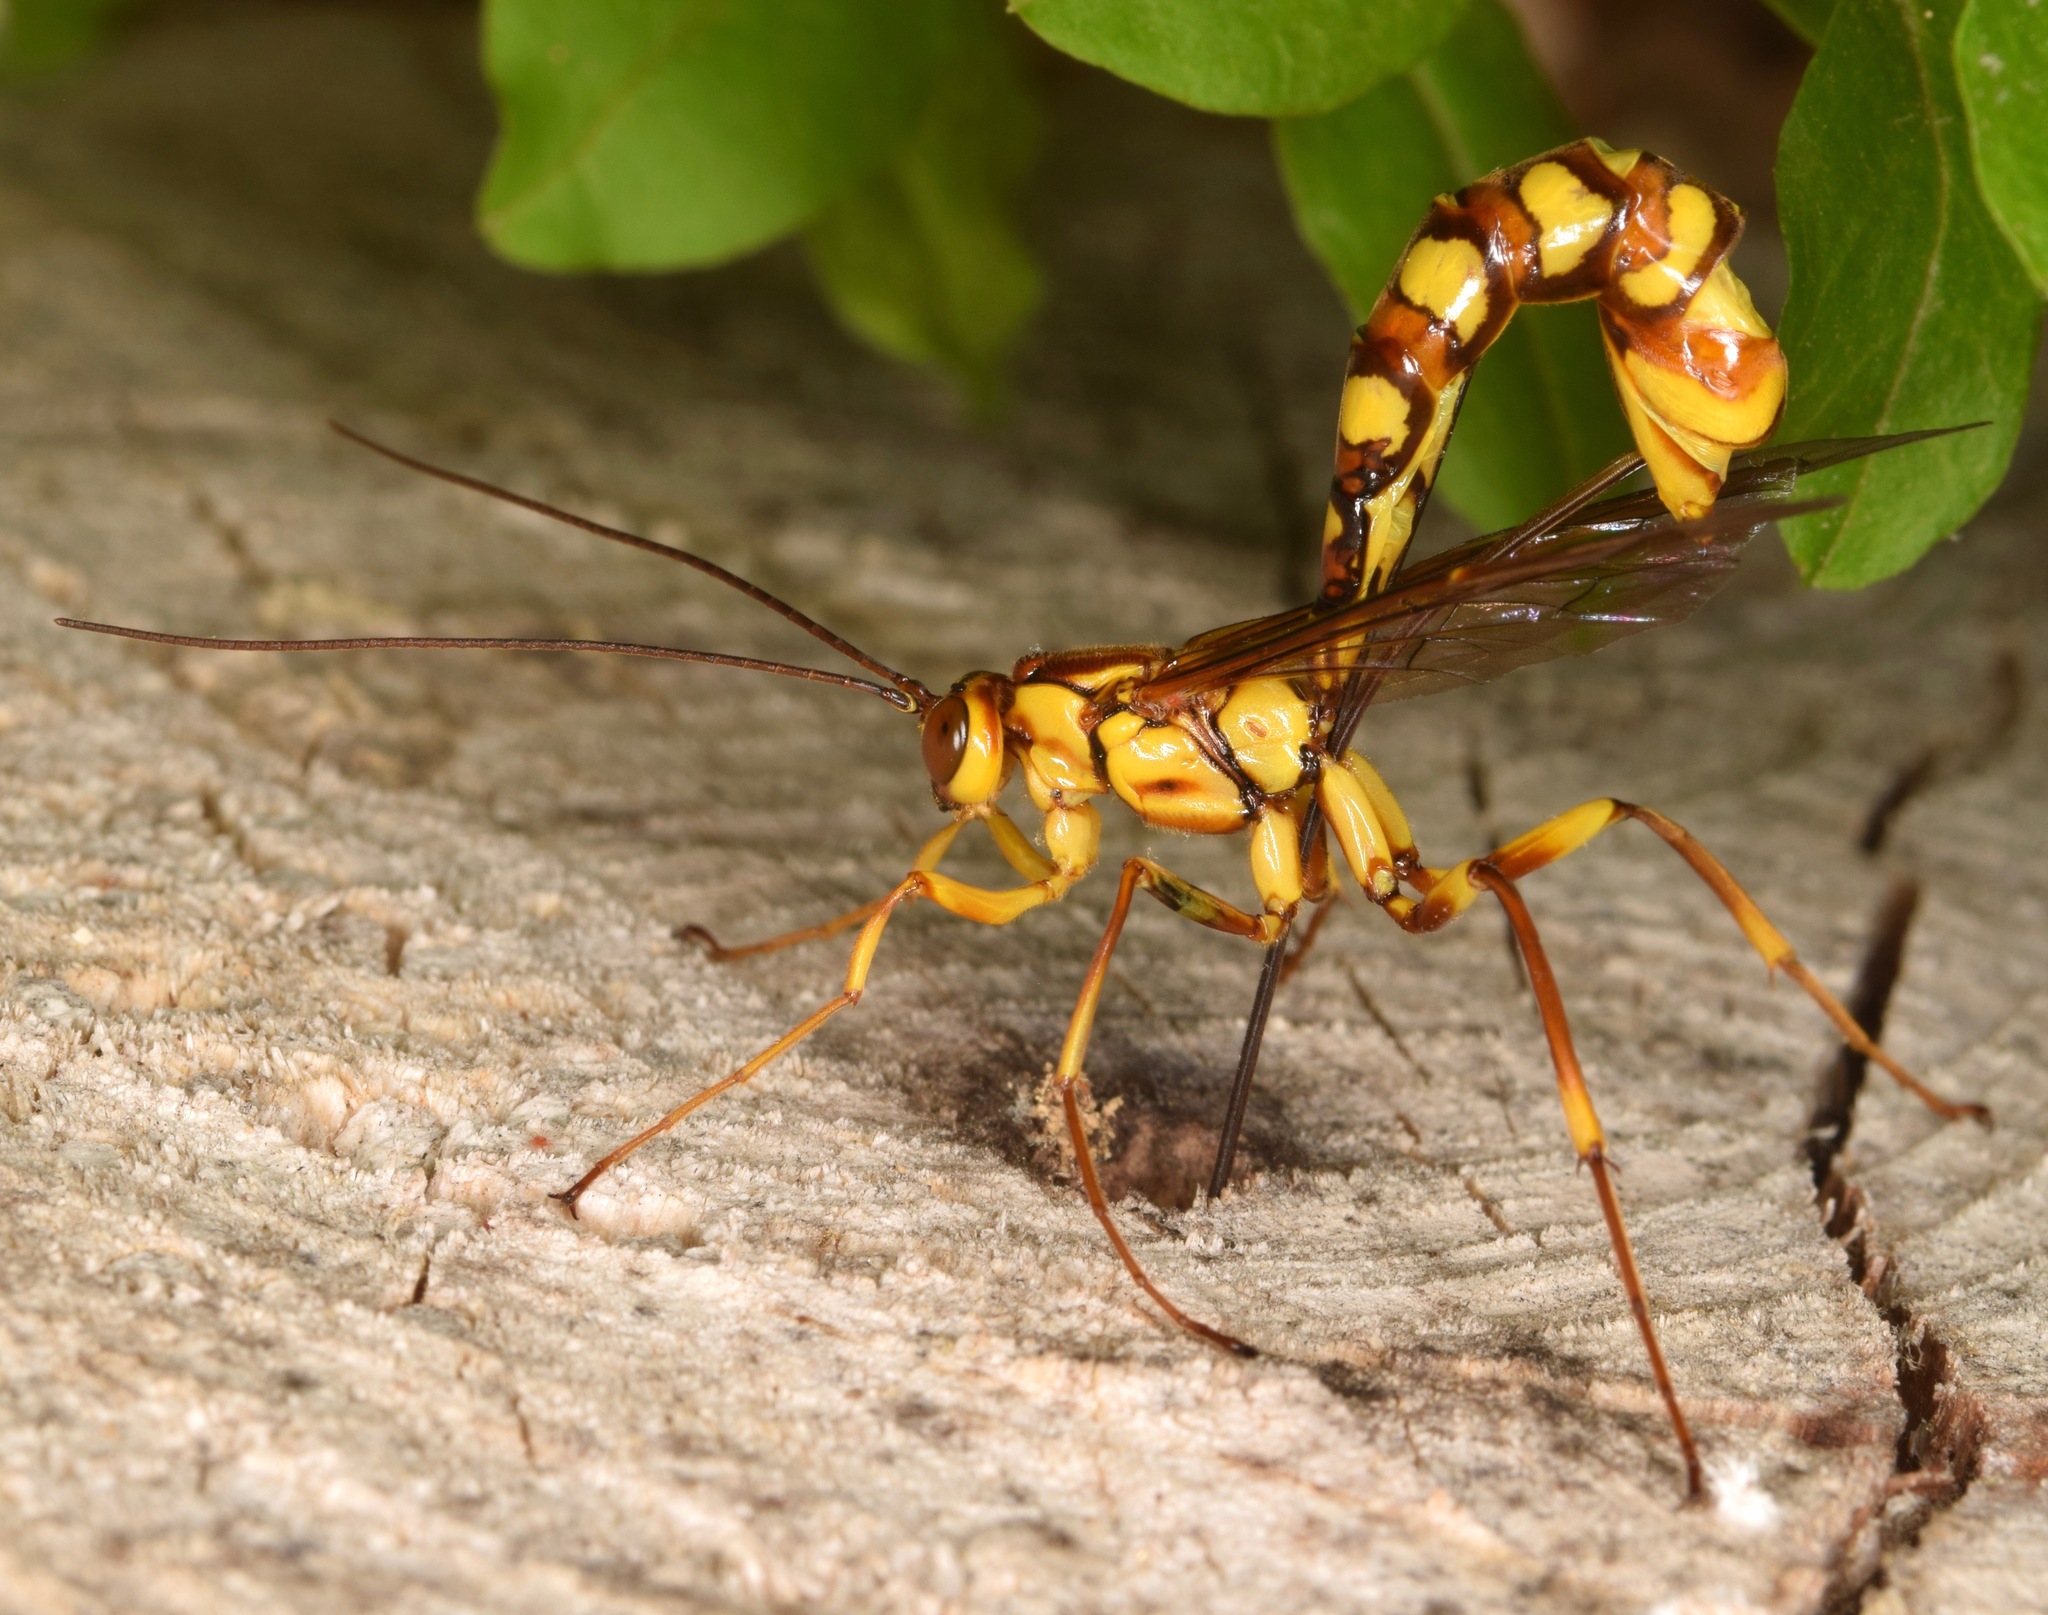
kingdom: Animalia
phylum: Arthropoda
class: Insecta
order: Hymenoptera
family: Ichneumonidae
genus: Megarhyssa
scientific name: Megarhyssa greenei
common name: Greene's giant ichneumonid wasp
